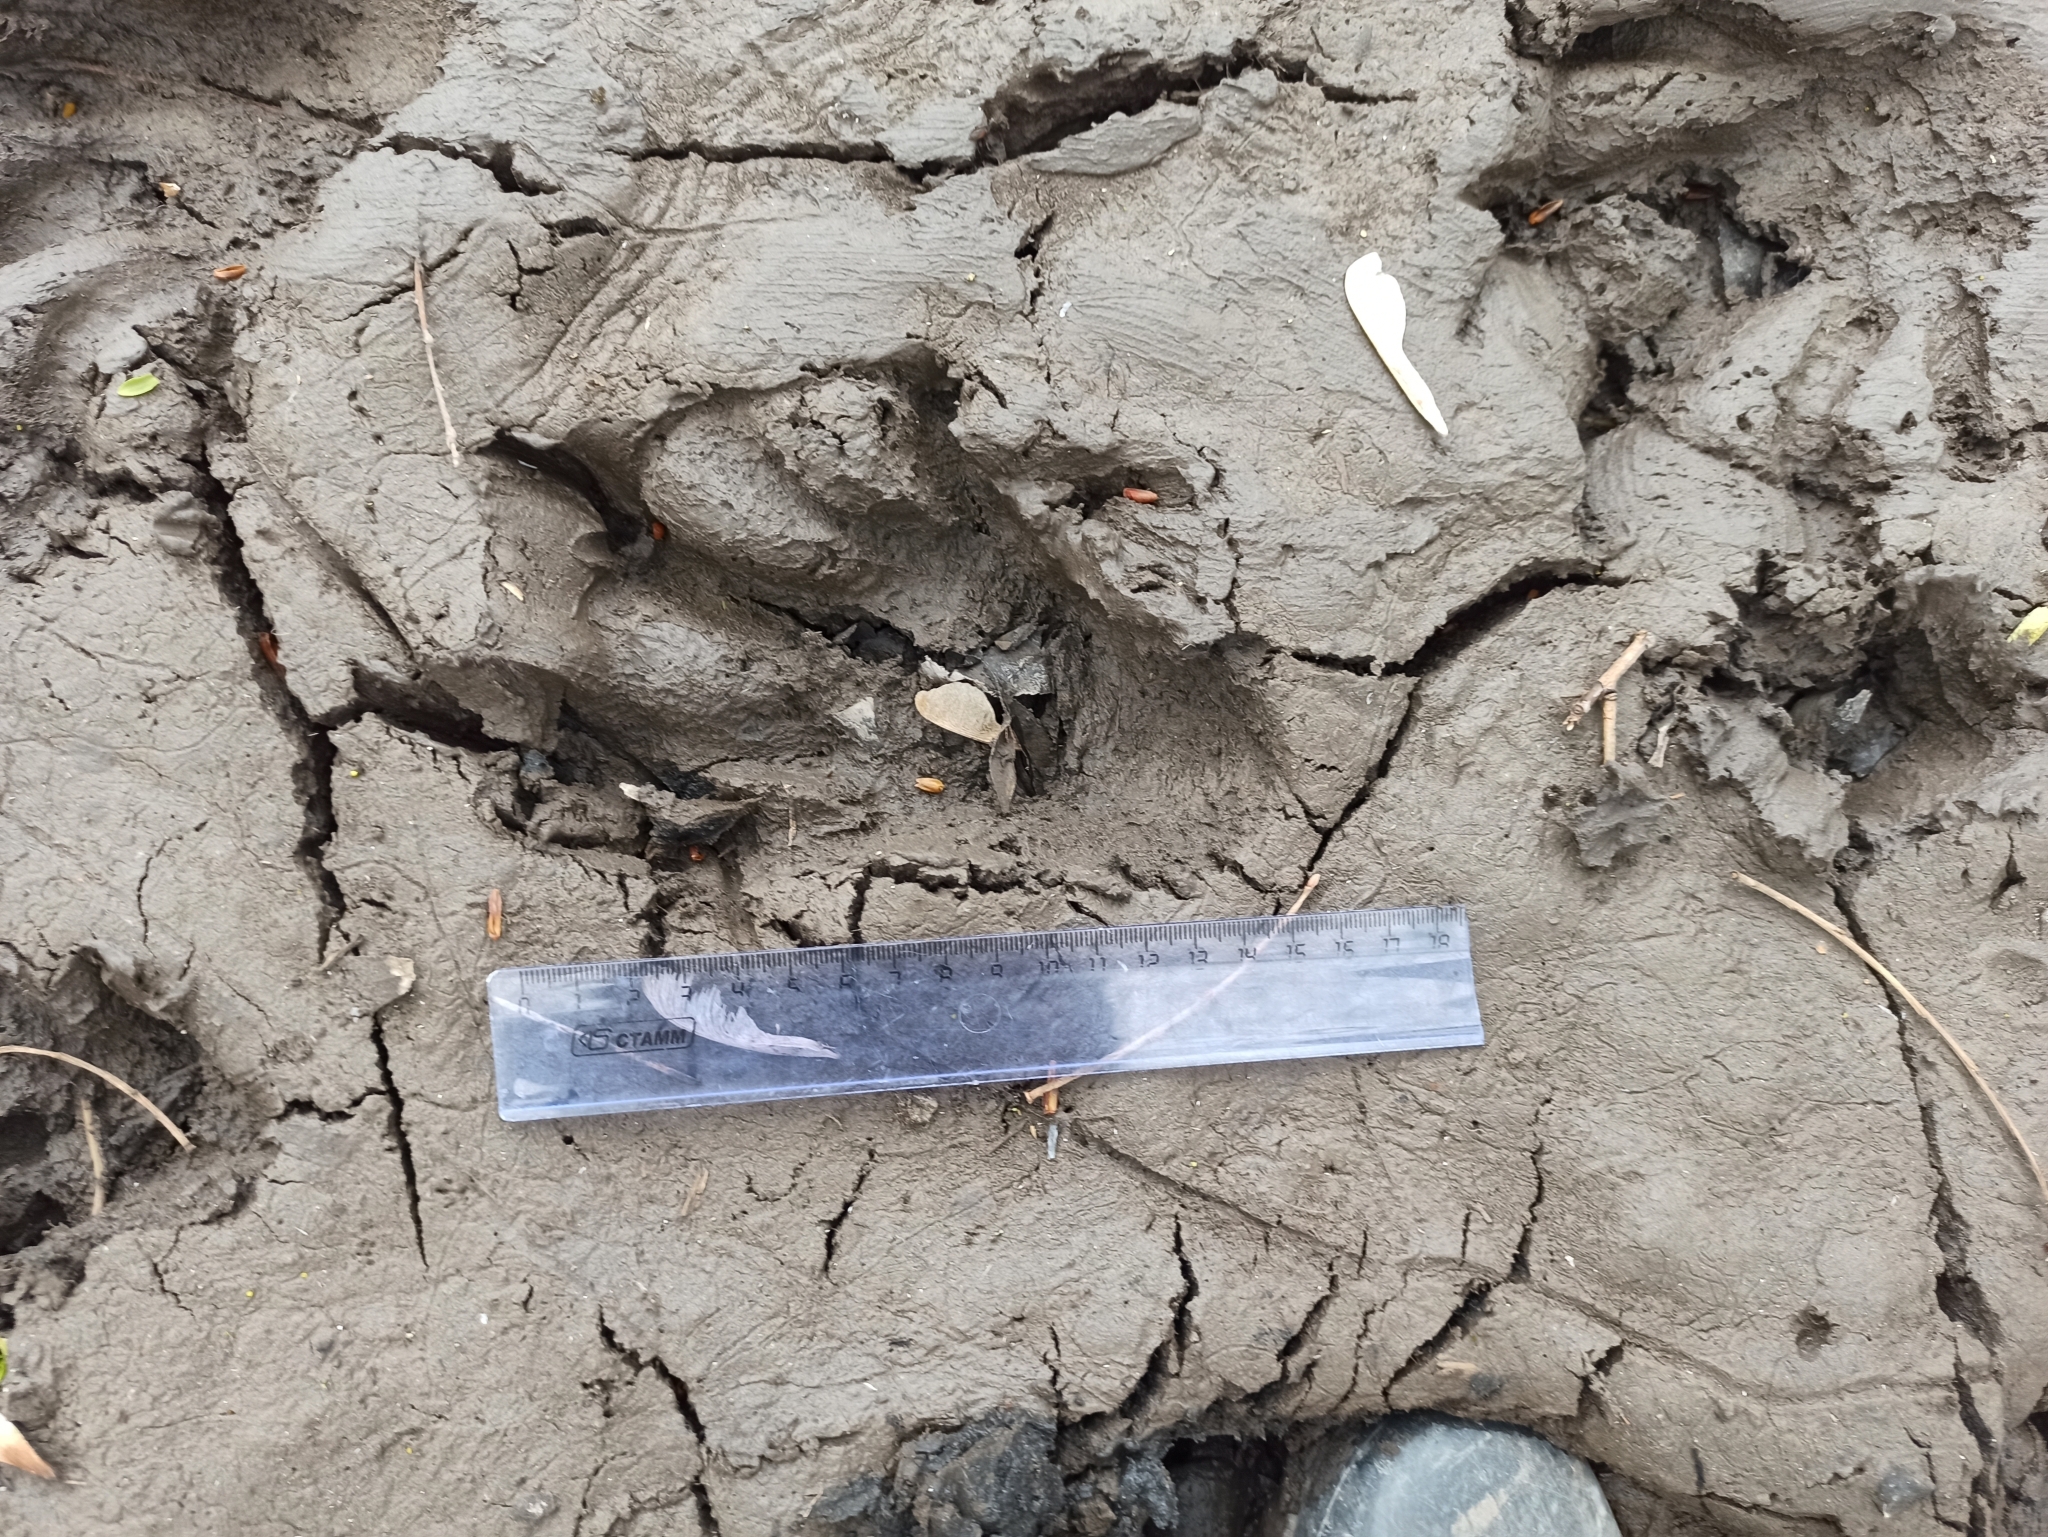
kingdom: Animalia
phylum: Chordata
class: Mammalia
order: Rodentia
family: Castoridae
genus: Castor
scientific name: Castor fiber
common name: Eurasian beaver
